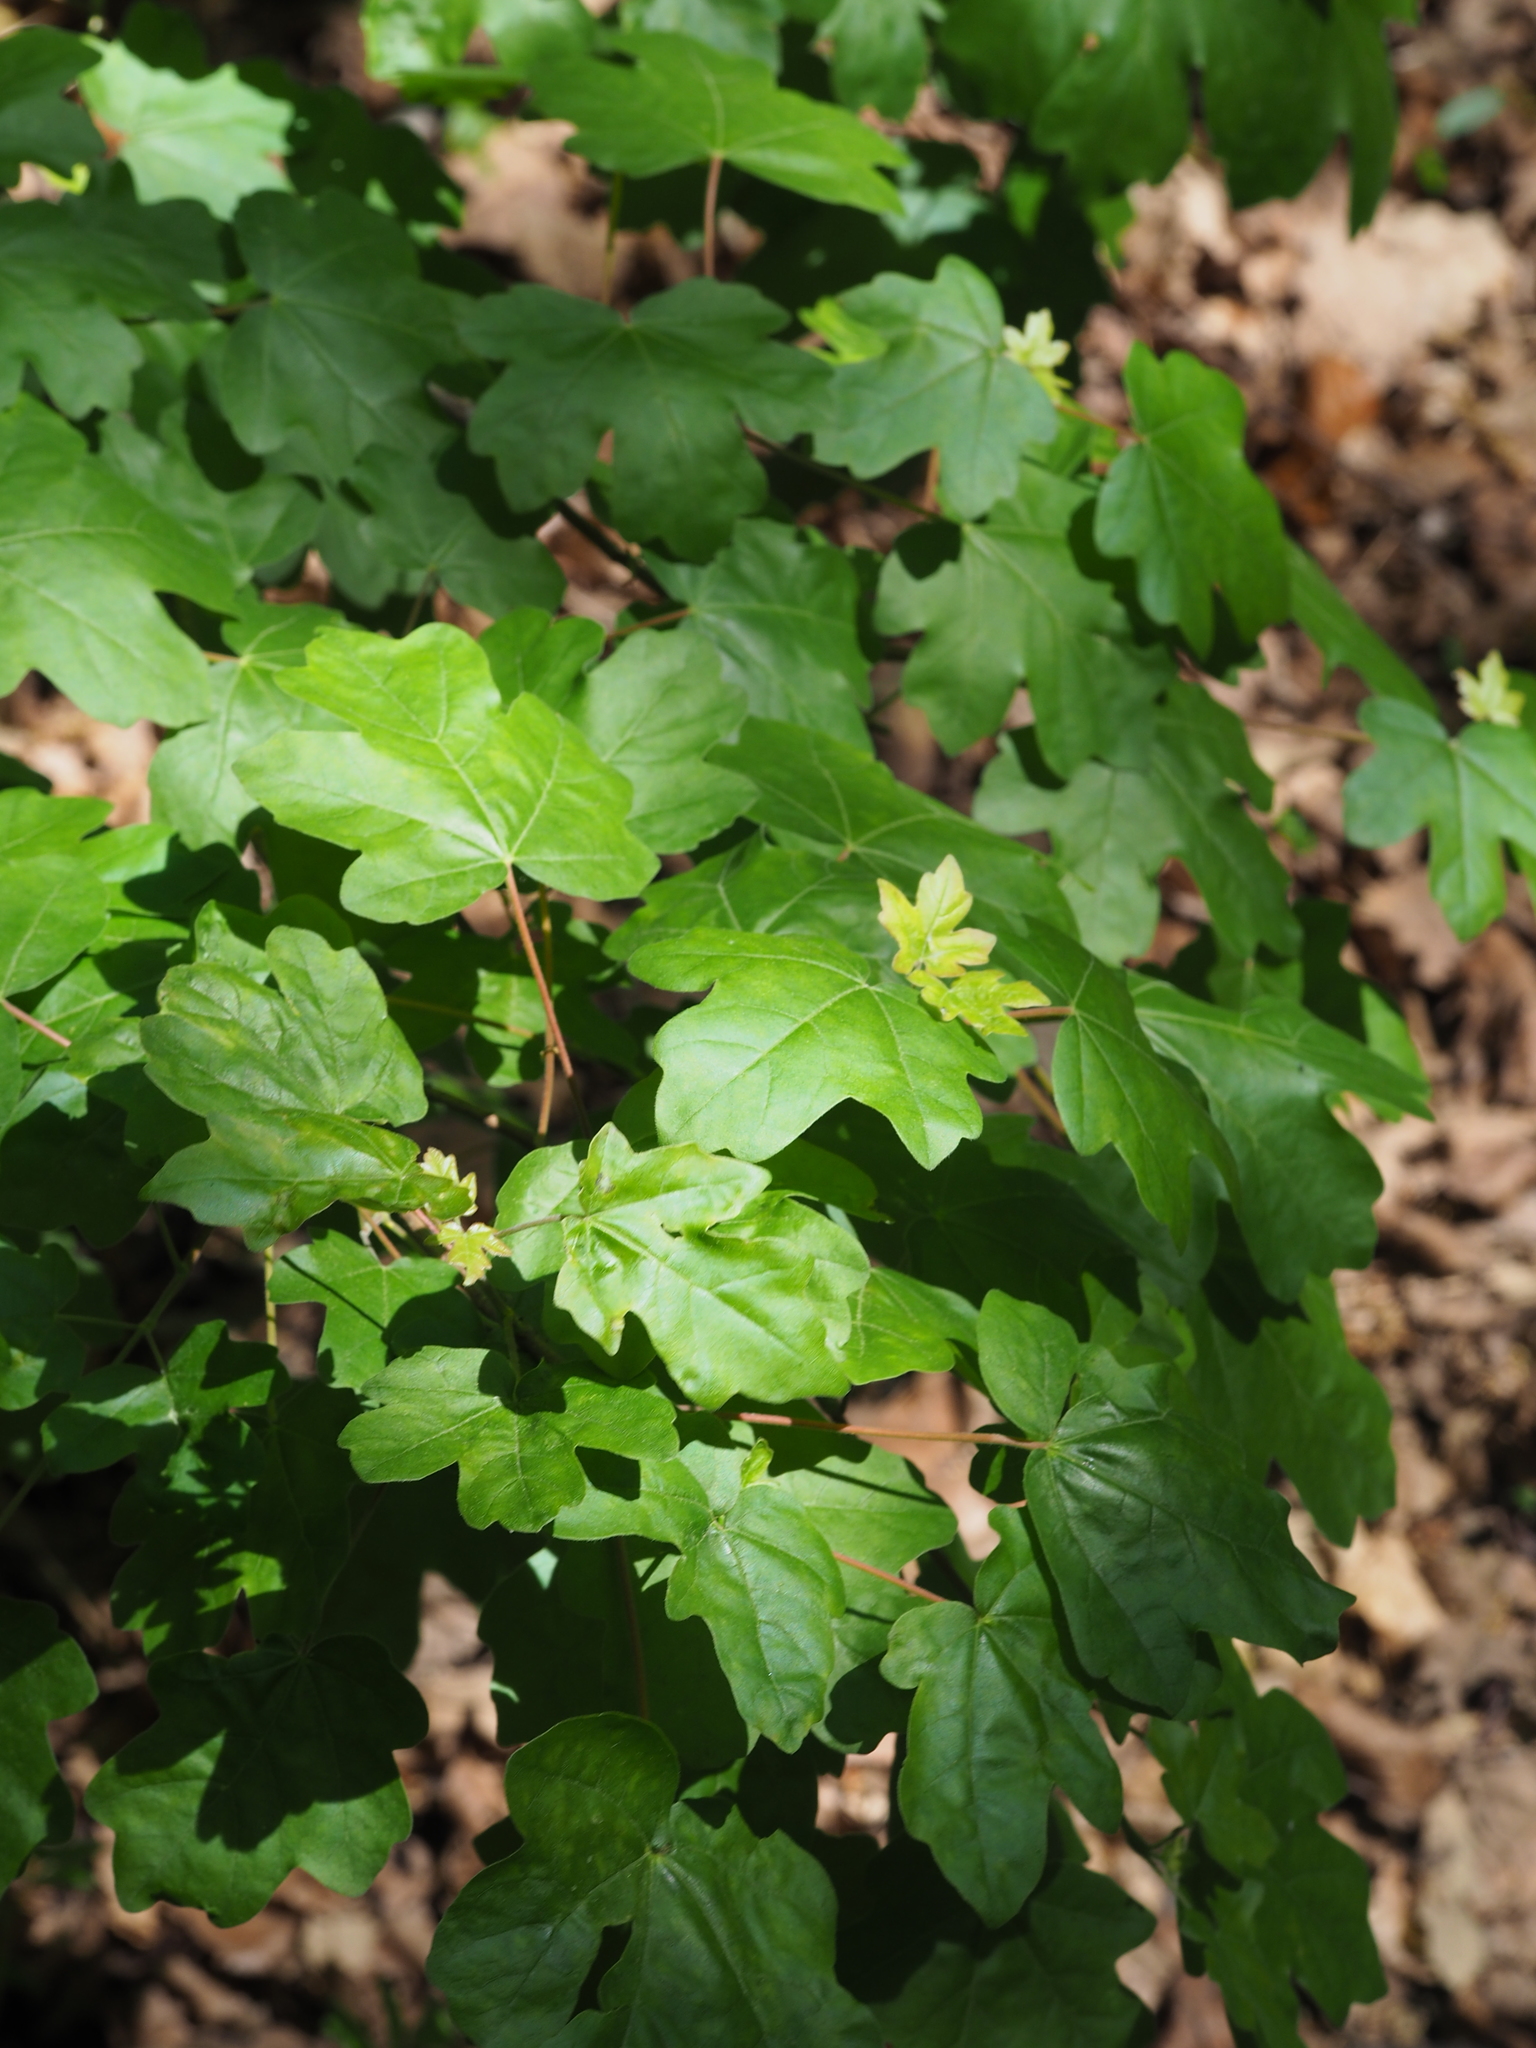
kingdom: Plantae
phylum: Tracheophyta
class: Magnoliopsida
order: Sapindales
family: Sapindaceae
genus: Acer
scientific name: Acer campestre
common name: Field maple
